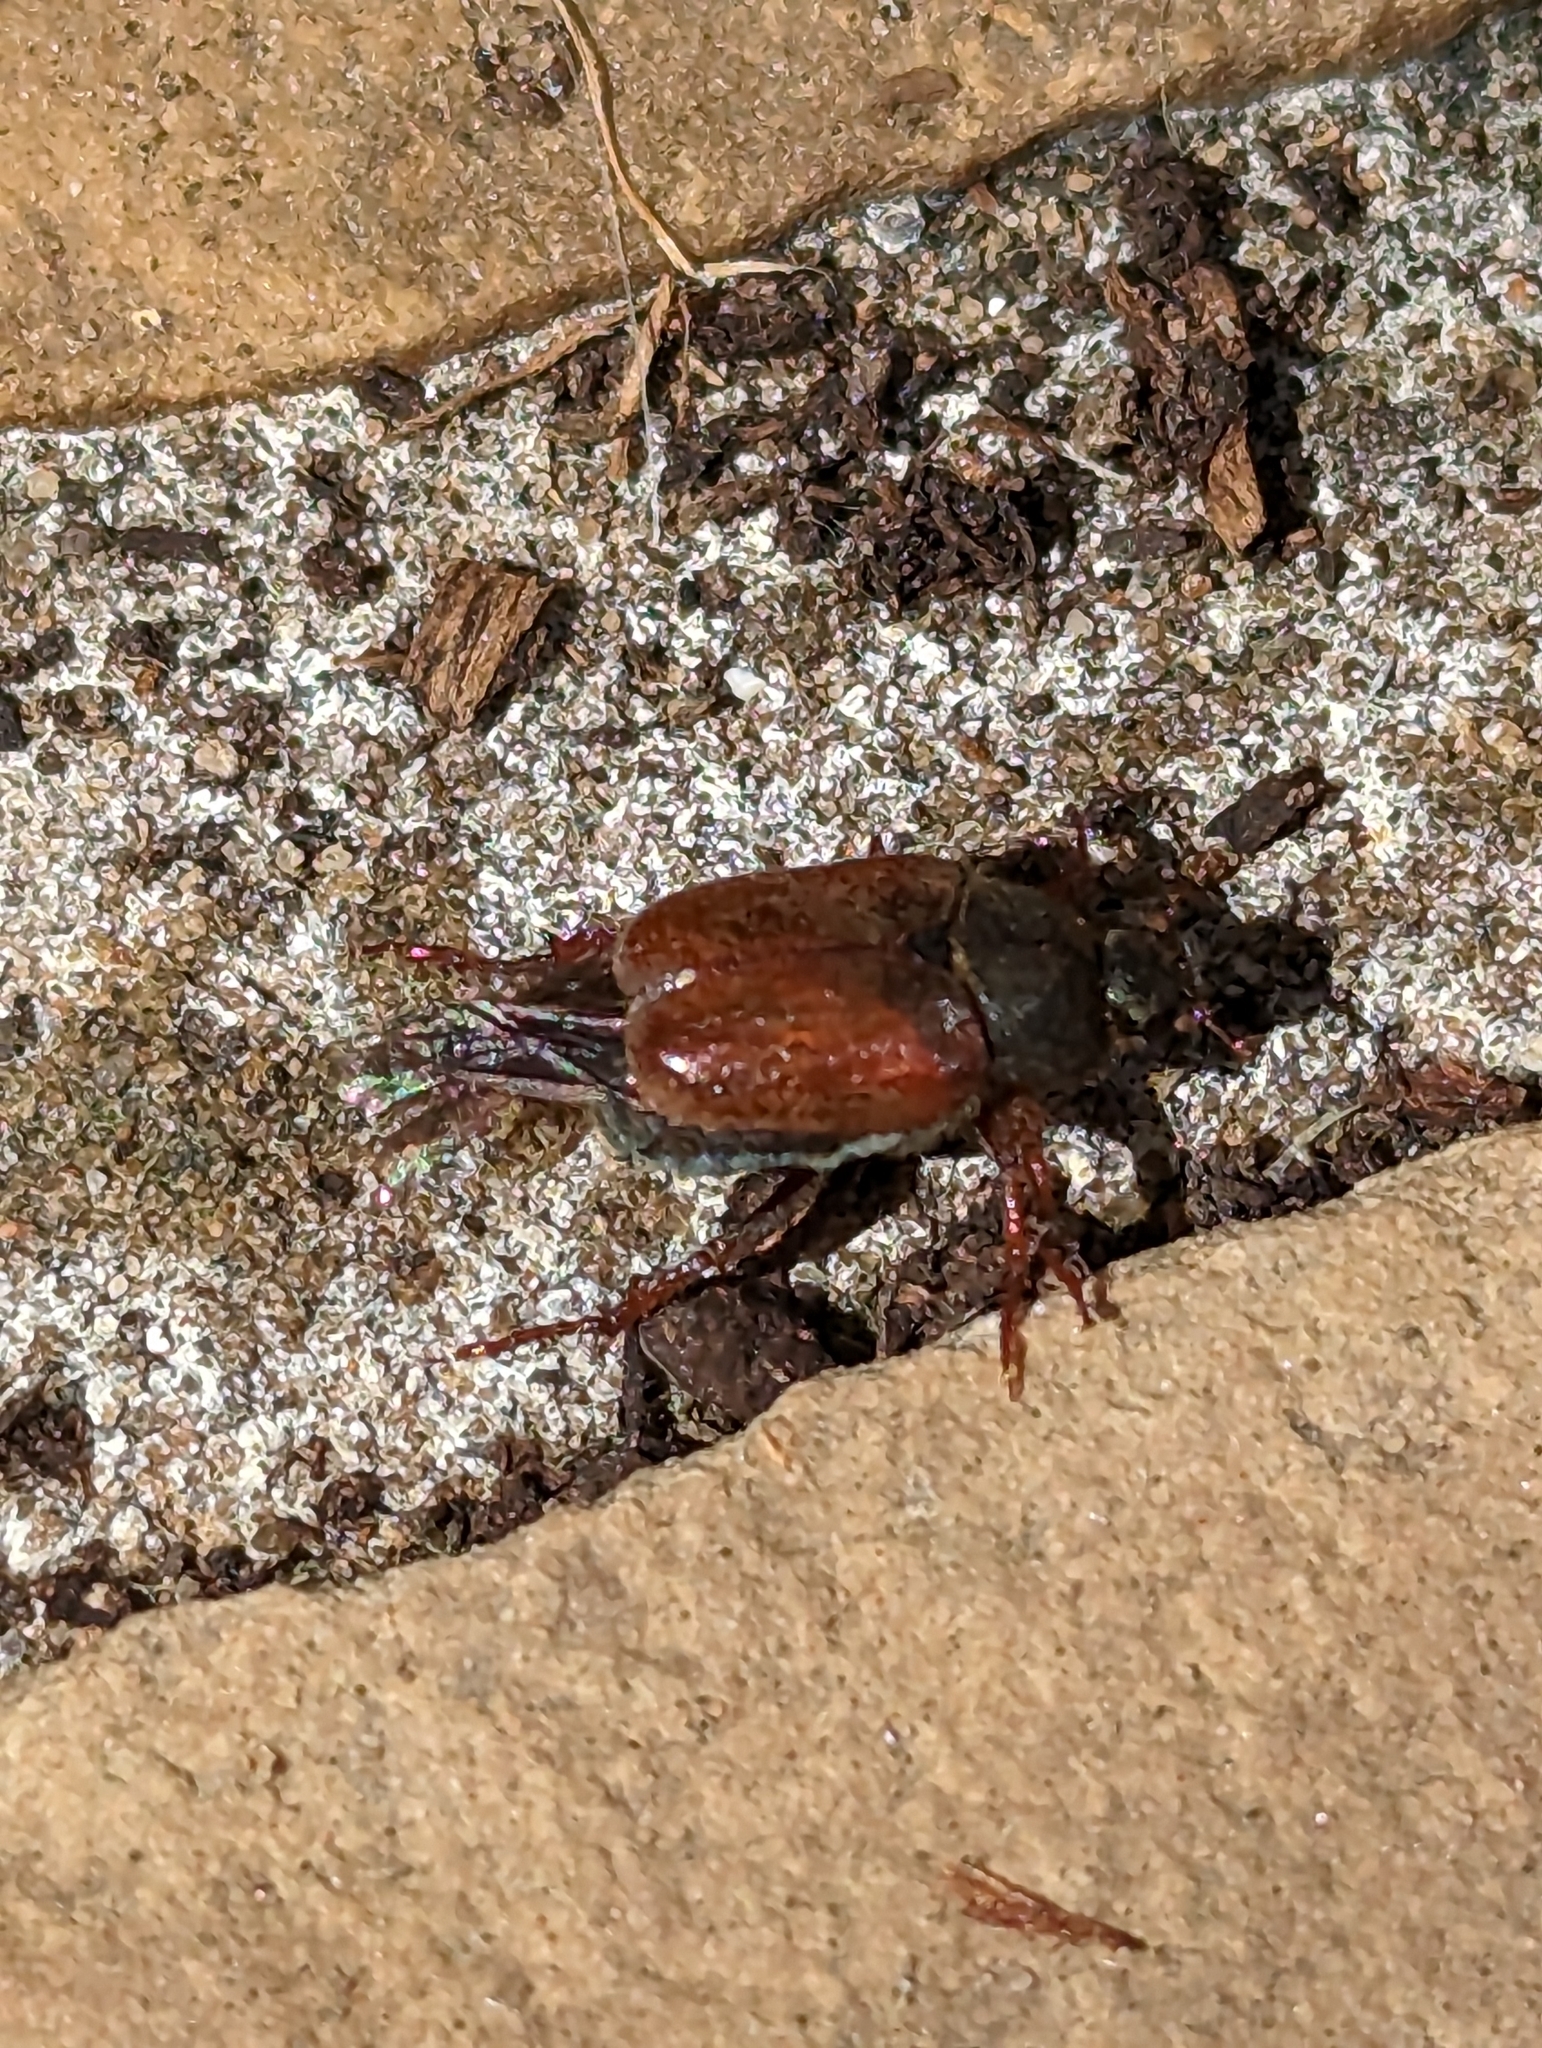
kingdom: Animalia
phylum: Arthropoda
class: Insecta
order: Coleoptera
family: Scarabaeidae
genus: Hoplia
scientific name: Hoplia philanthus
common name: Welsh chafer
